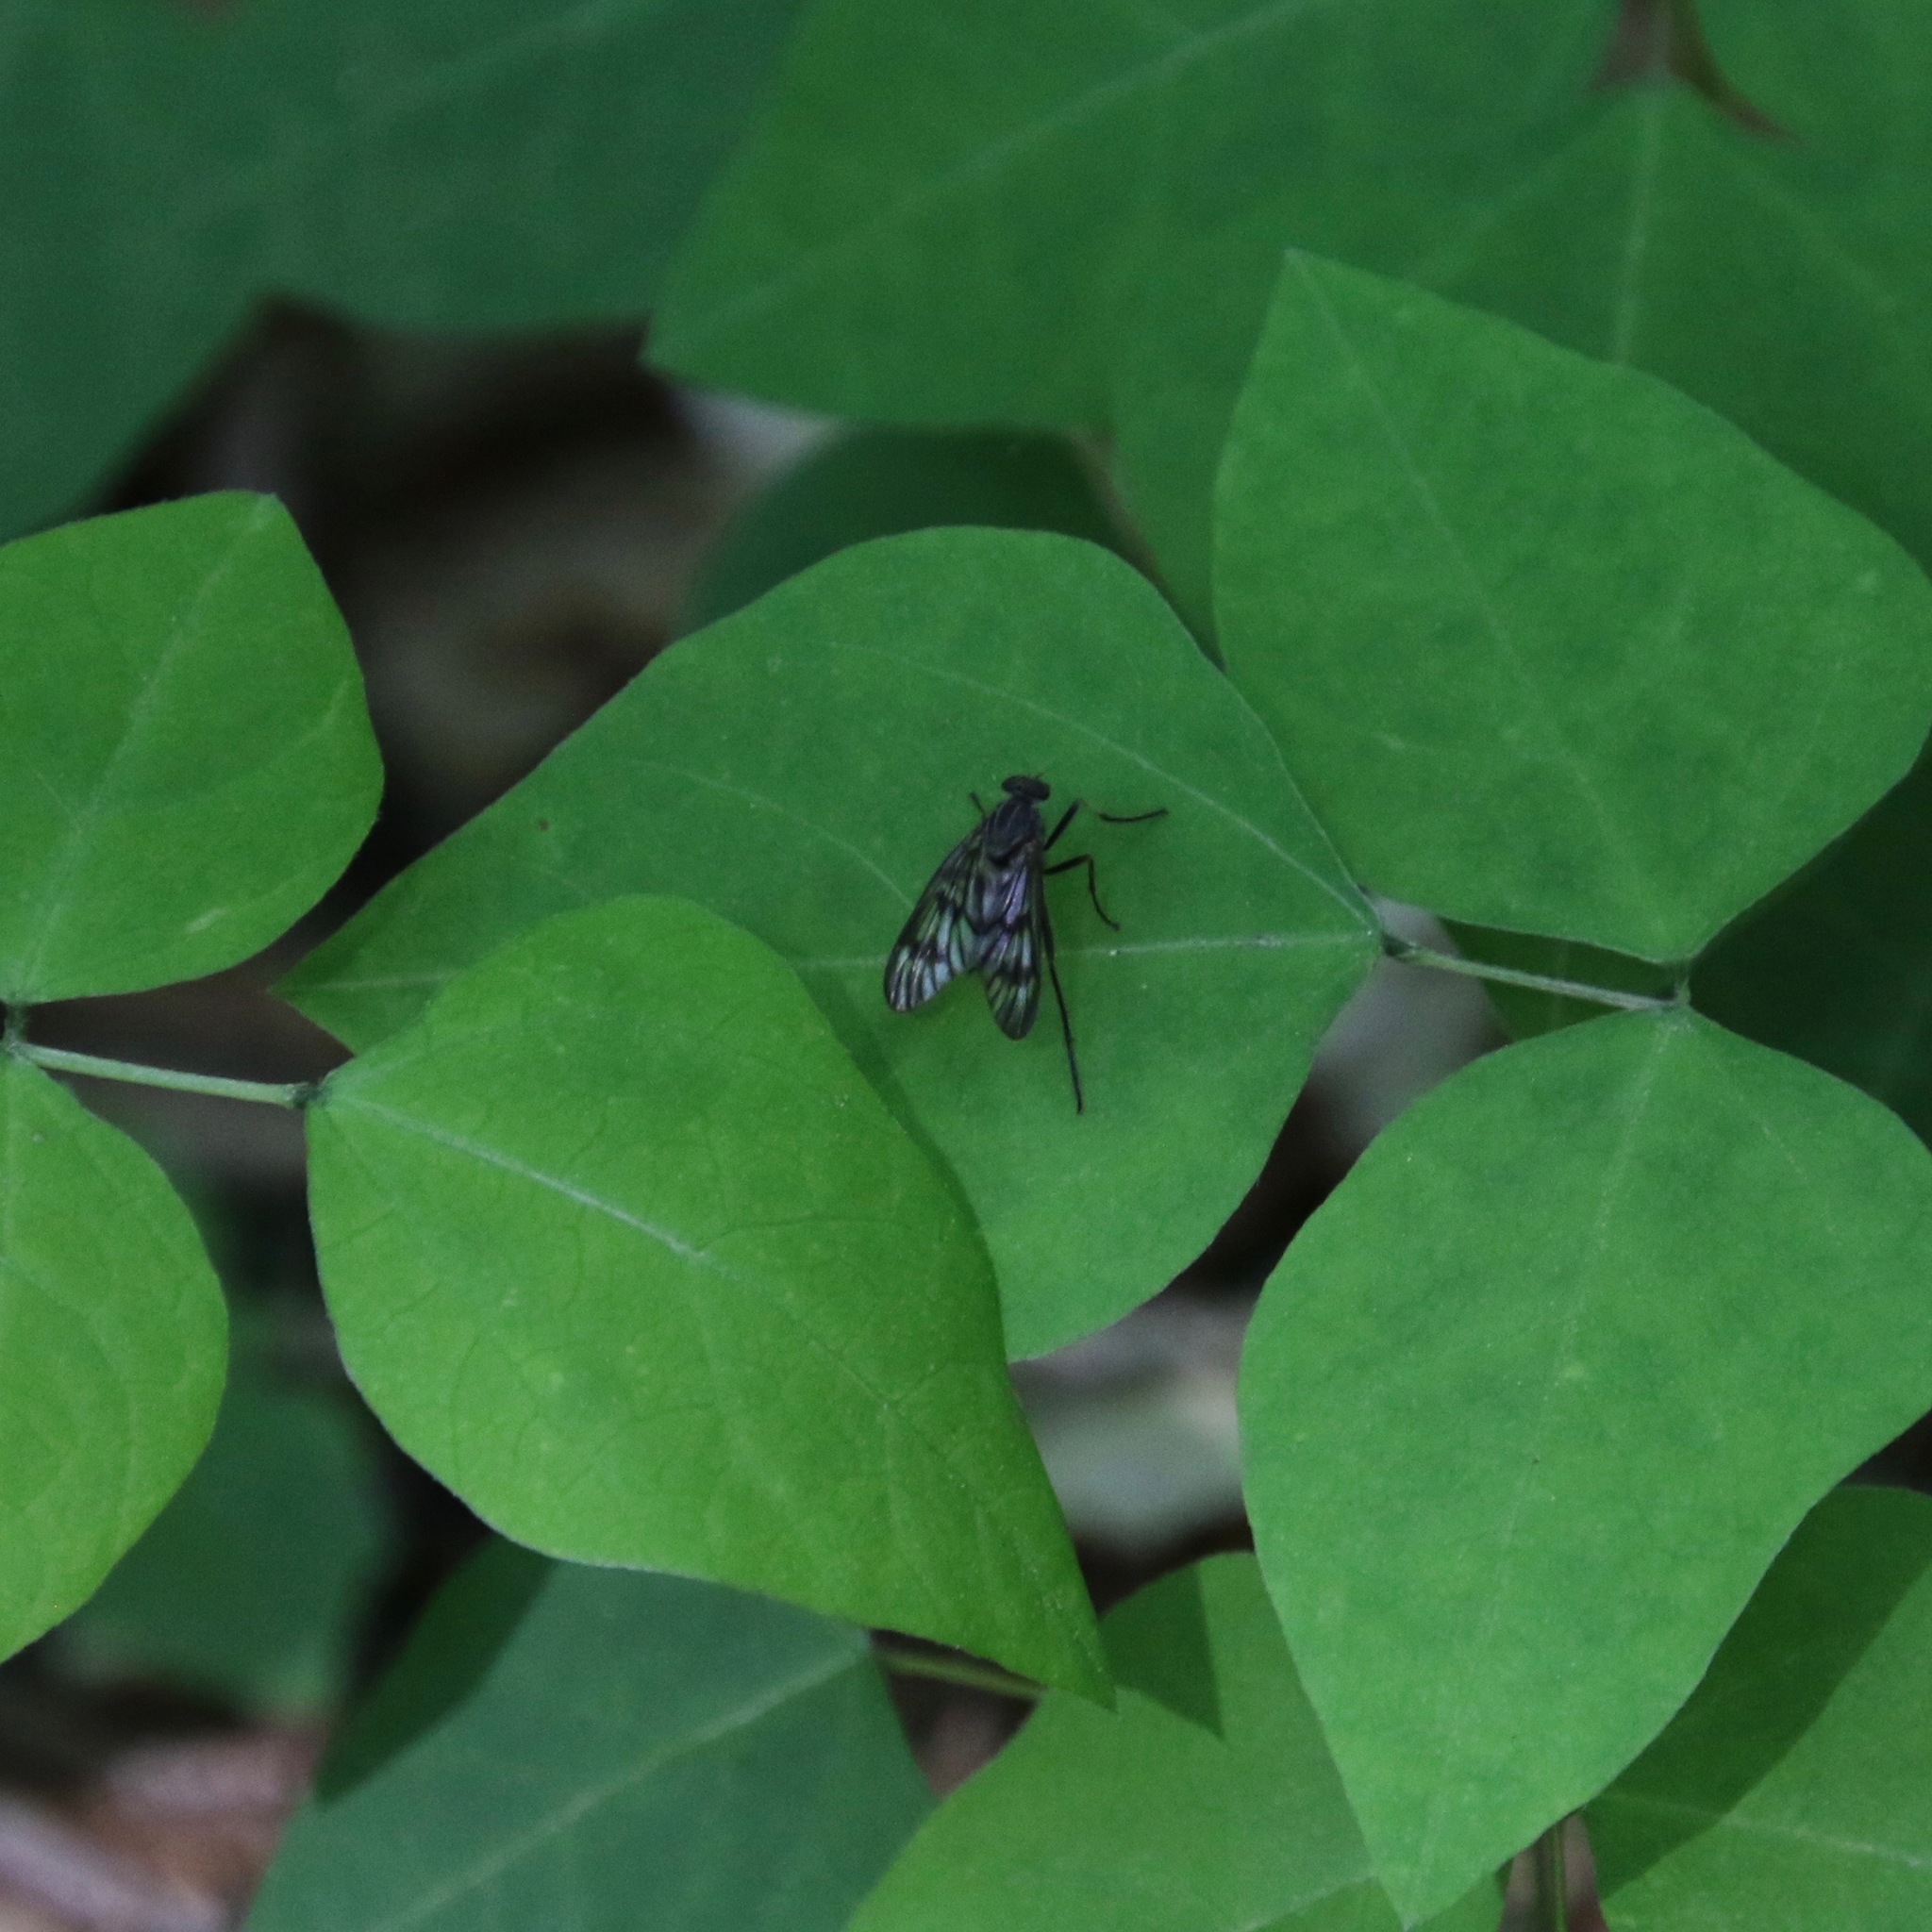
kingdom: Animalia
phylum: Arthropoda
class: Insecta
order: Diptera
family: Rhagionidae
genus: Rhagio
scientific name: Rhagio mystaceus
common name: Common snipe fly
